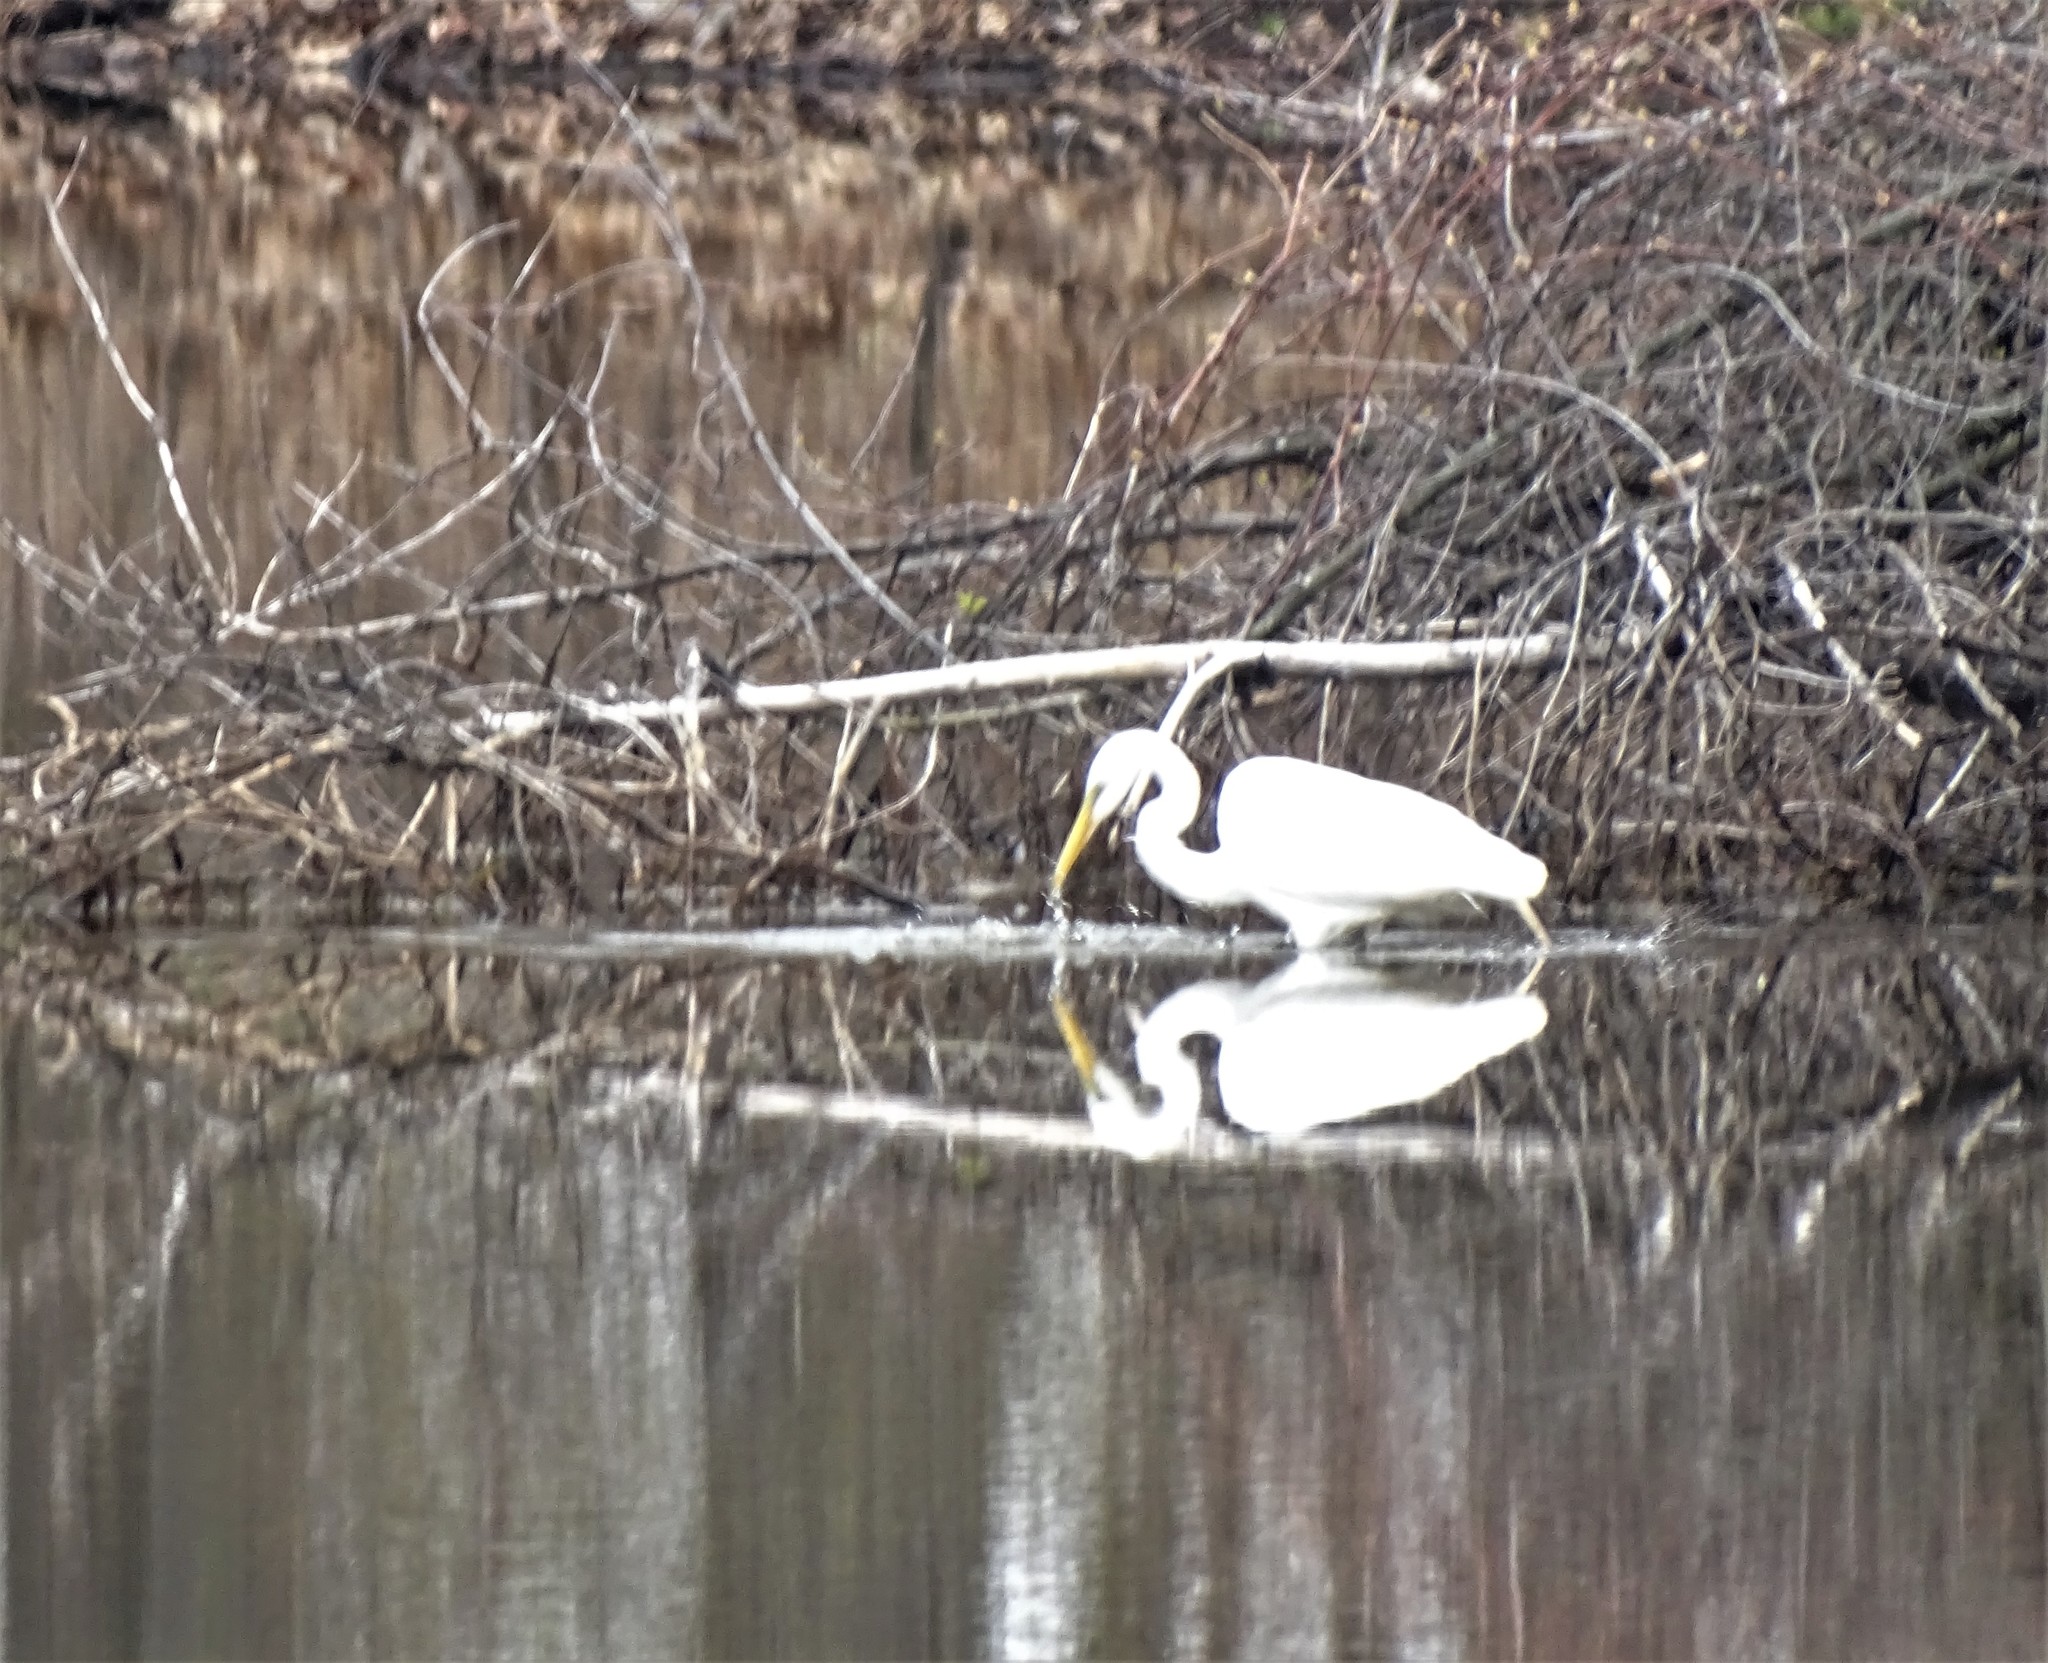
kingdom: Animalia
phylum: Chordata
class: Aves
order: Pelecaniformes
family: Ardeidae
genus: Ardea
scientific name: Ardea alba
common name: Great egret
